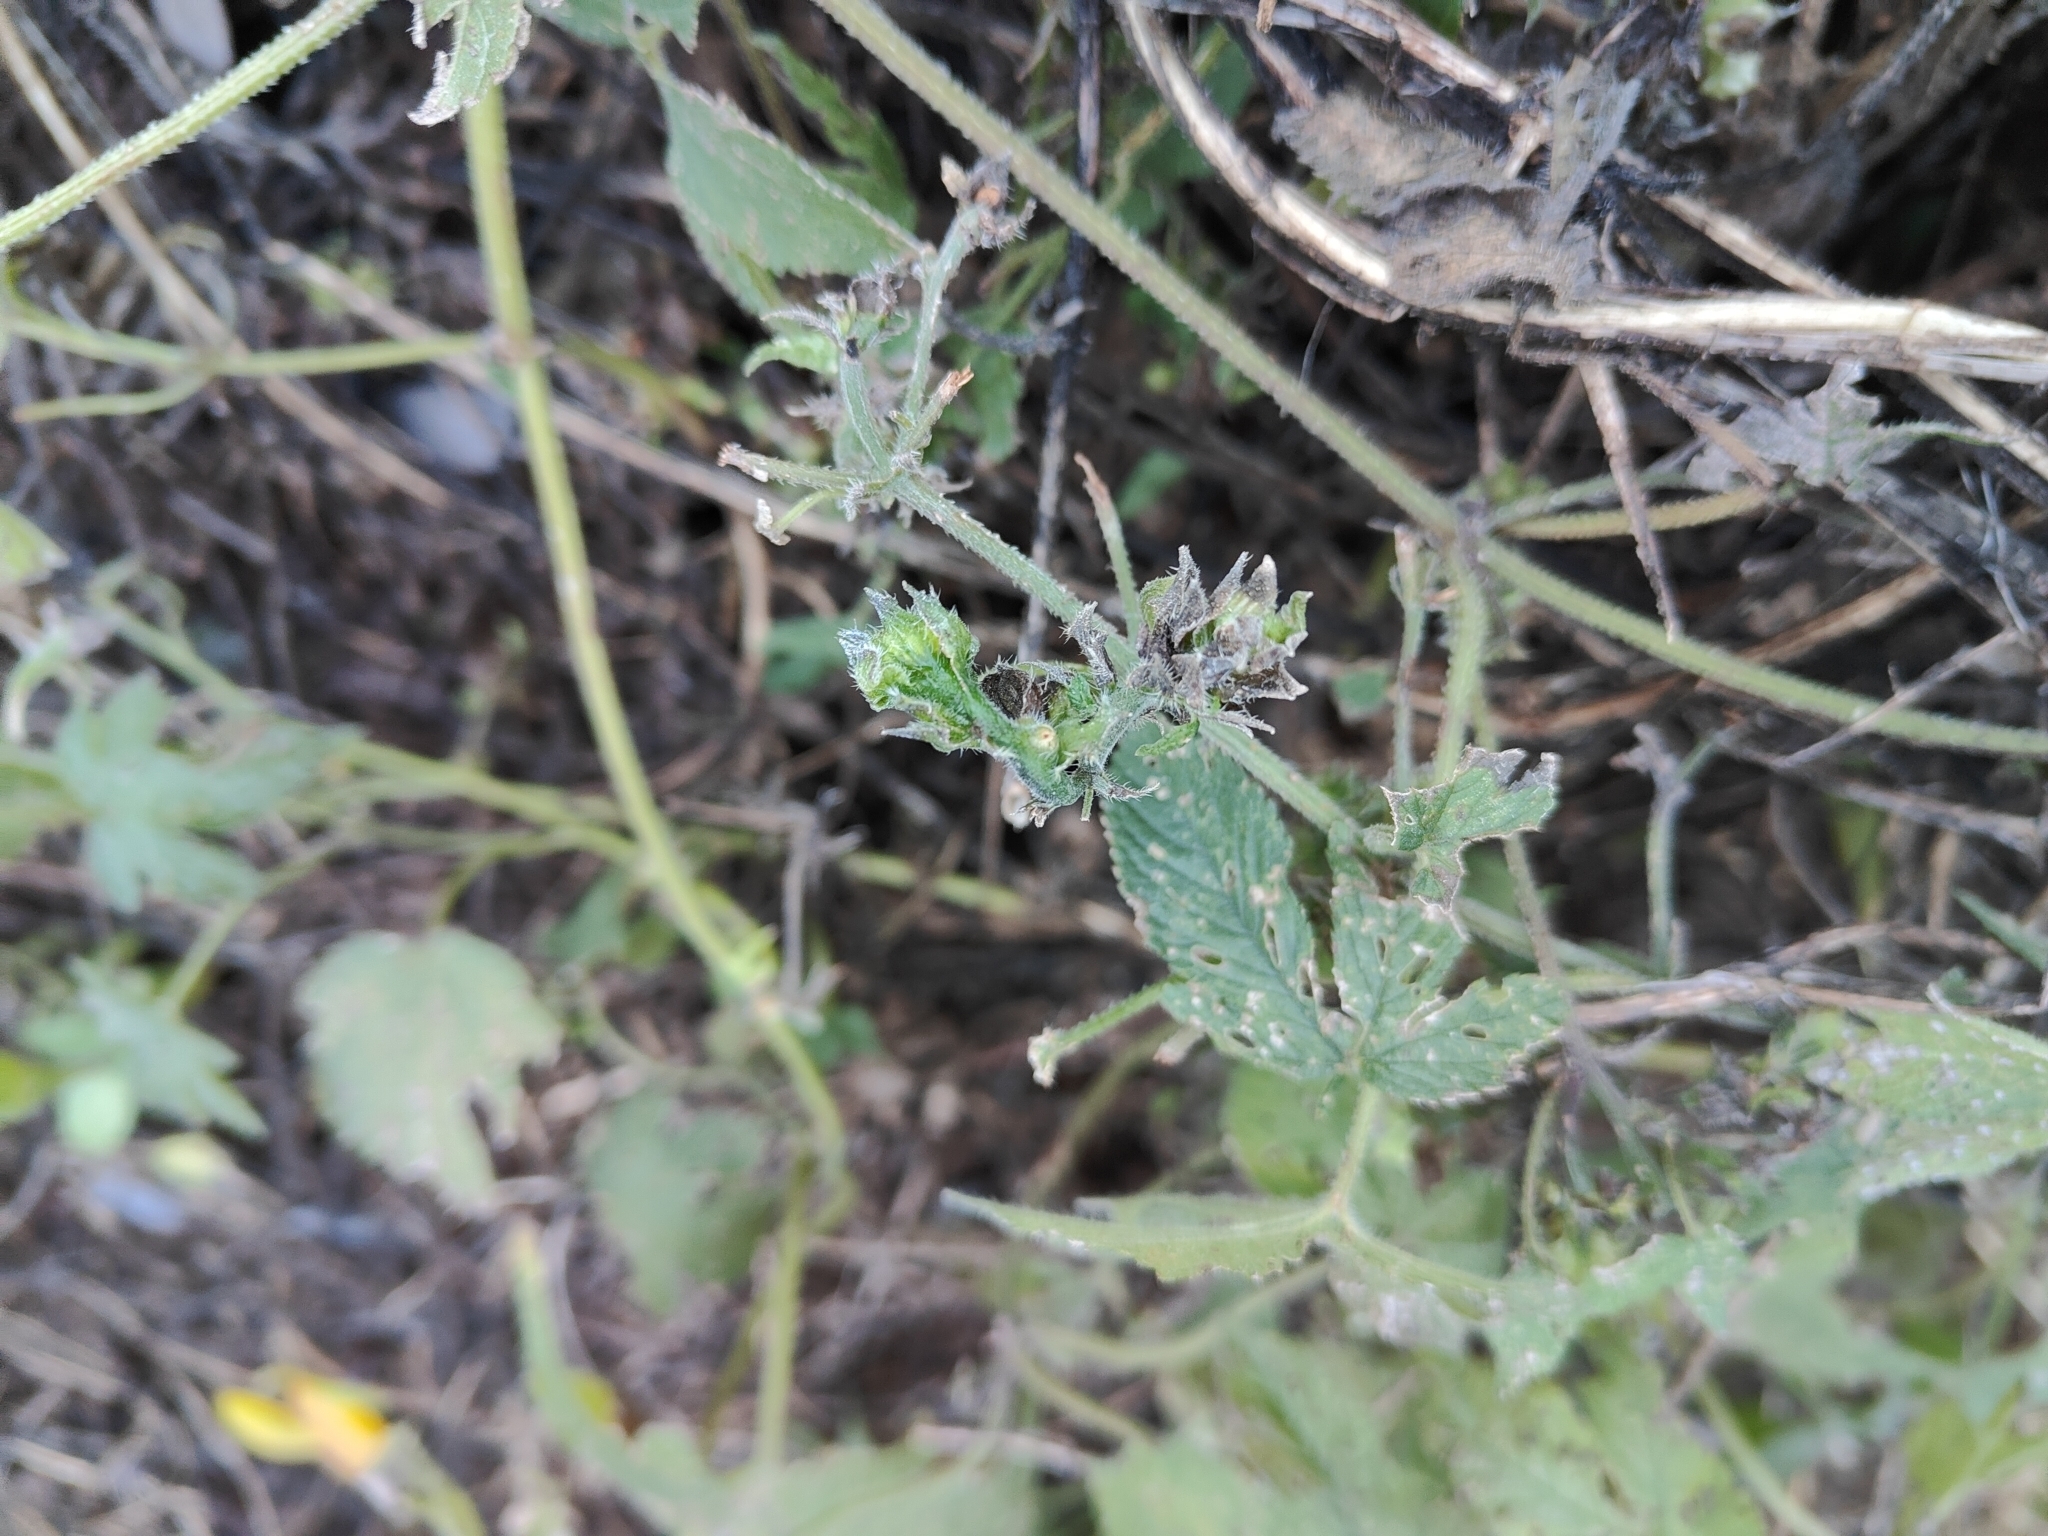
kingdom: Plantae
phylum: Tracheophyta
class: Magnoliopsida
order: Rosales
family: Cannabaceae
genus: Humulus
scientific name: Humulus scandens
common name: Japanese hop
